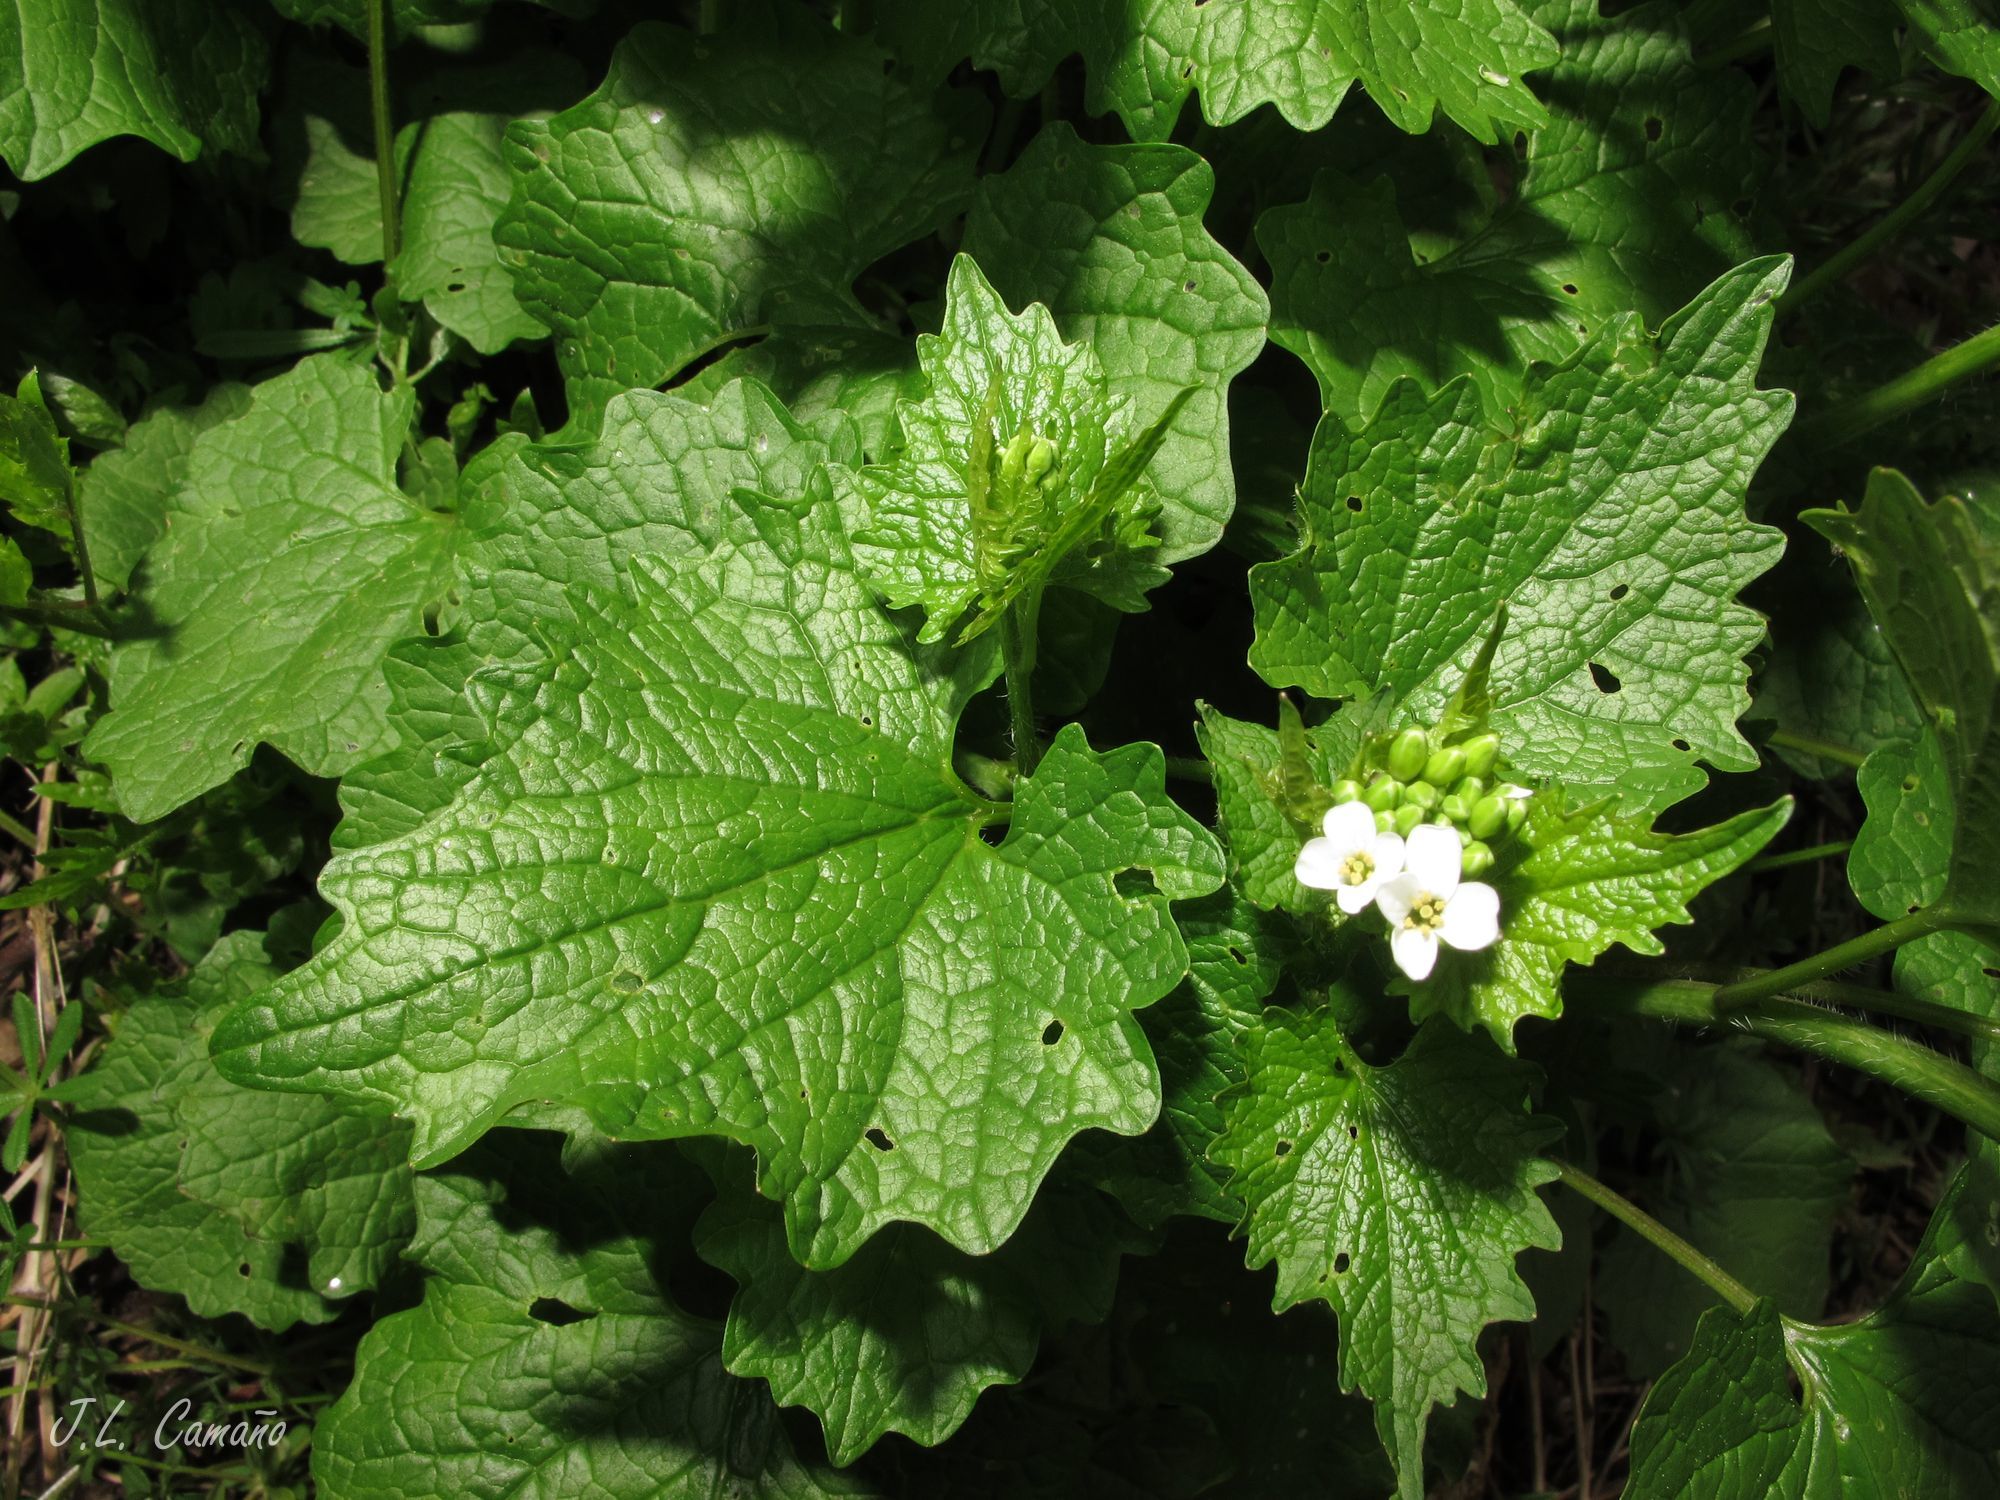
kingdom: Plantae
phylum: Tracheophyta
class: Magnoliopsida
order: Brassicales
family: Brassicaceae
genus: Alliaria
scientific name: Alliaria petiolata
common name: Garlic mustard
